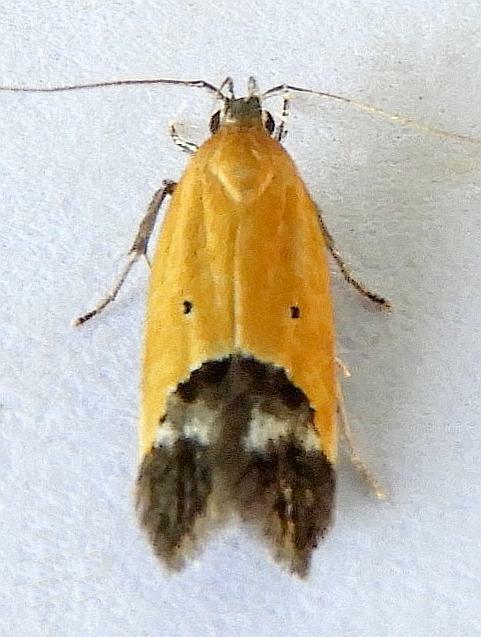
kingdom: Animalia
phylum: Arthropoda
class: Insecta
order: Lepidoptera
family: Momphidae
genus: Triclonella
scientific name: Triclonella pergandeella
